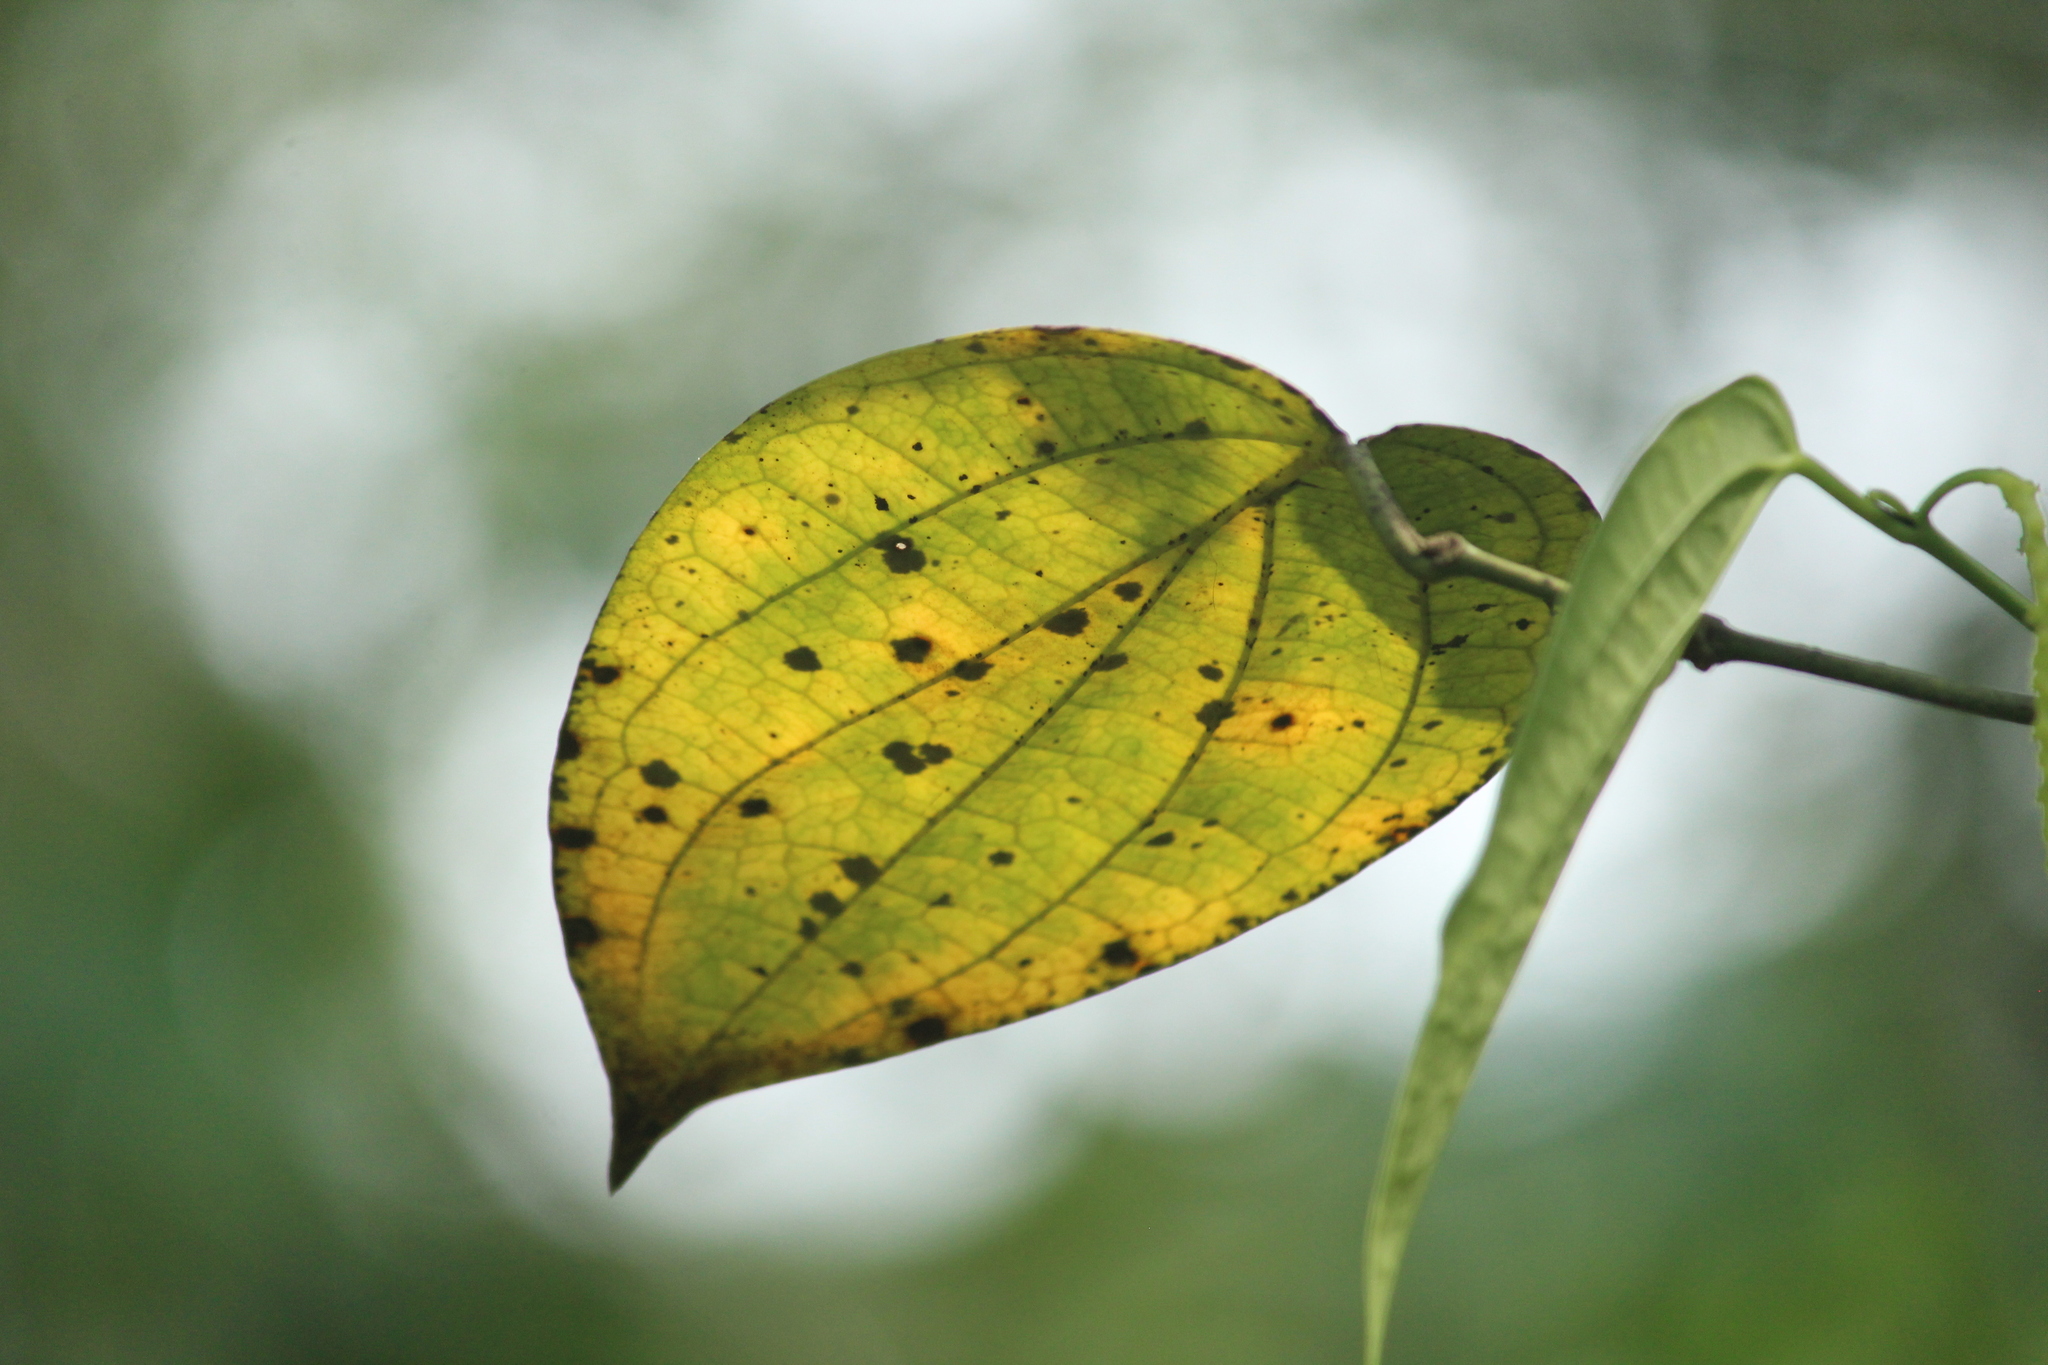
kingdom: Plantae
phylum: Tracheophyta
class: Magnoliopsida
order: Piperales
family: Piperaceae
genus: Piper
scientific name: Piper nigrum
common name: Black pepper
